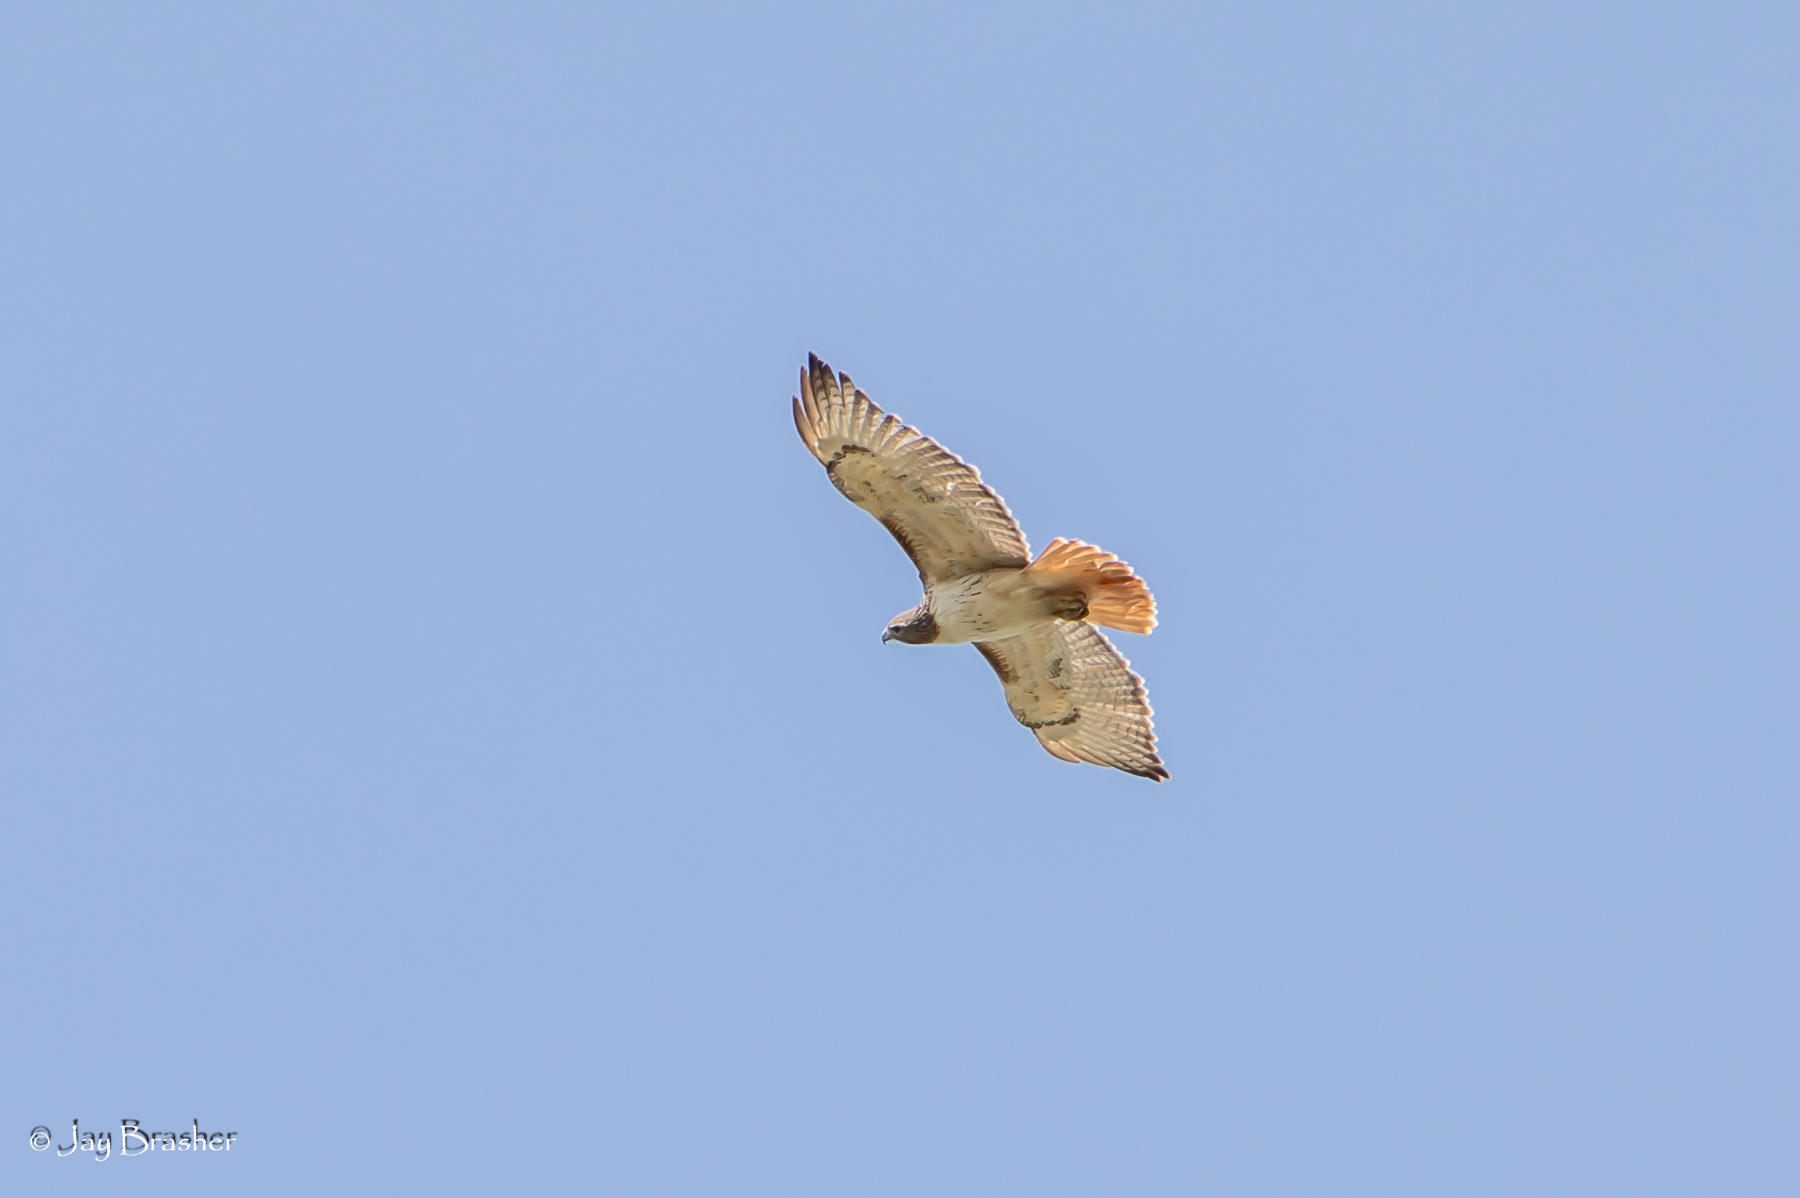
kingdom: Animalia
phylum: Chordata
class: Aves
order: Accipitriformes
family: Accipitridae
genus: Buteo
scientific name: Buteo jamaicensis
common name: Red-tailed hawk
